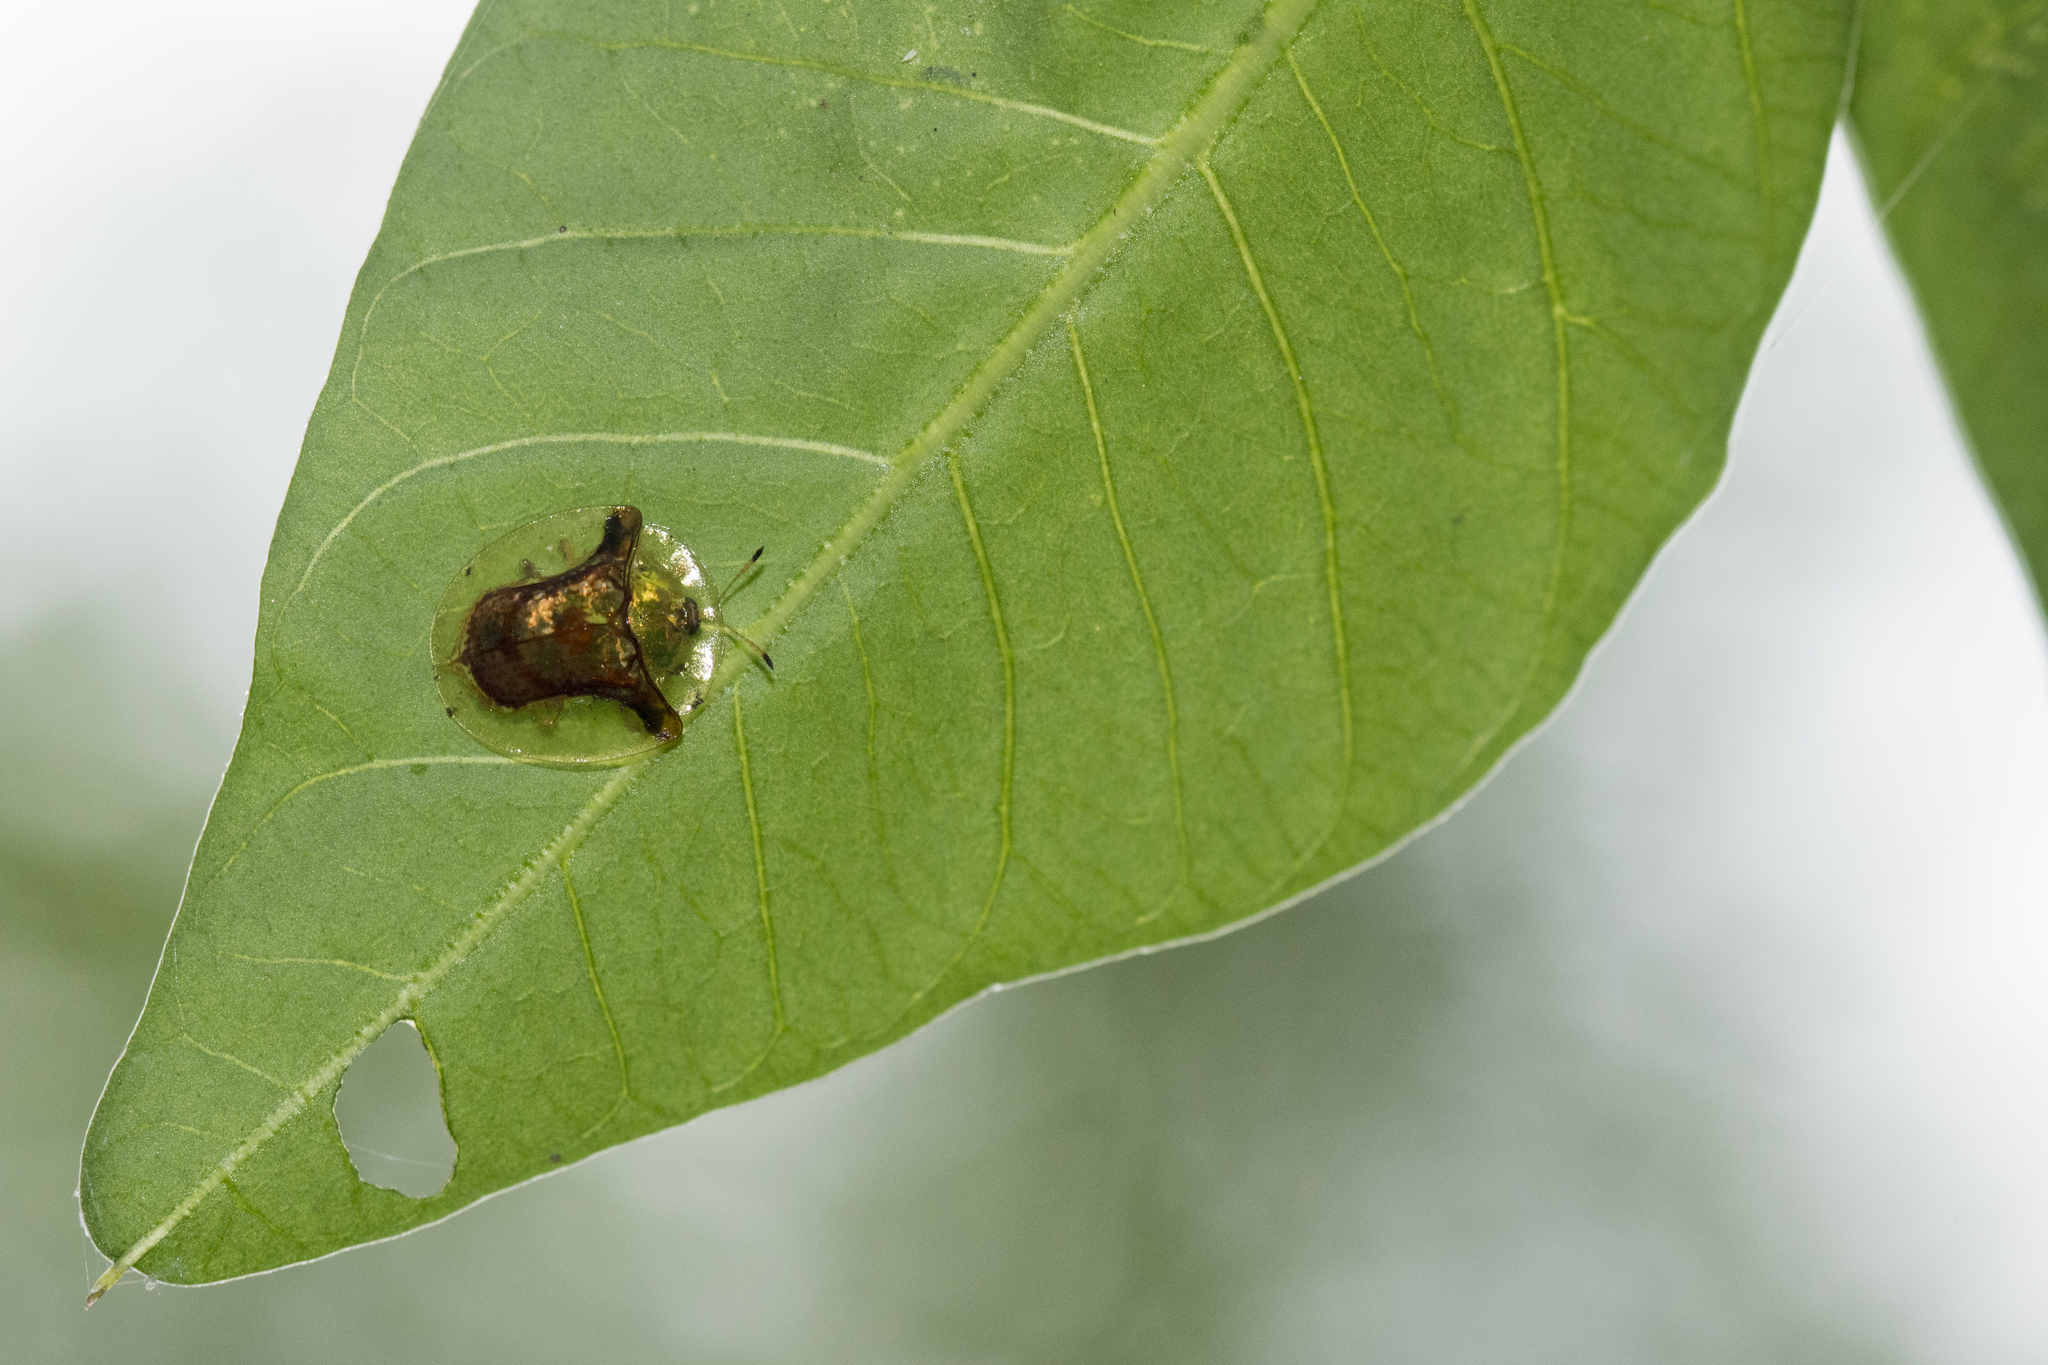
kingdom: Animalia
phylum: Arthropoda
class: Insecta
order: Coleoptera
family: Chrysomelidae
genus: Aspidimorpha
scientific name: Aspidimorpha furcata
